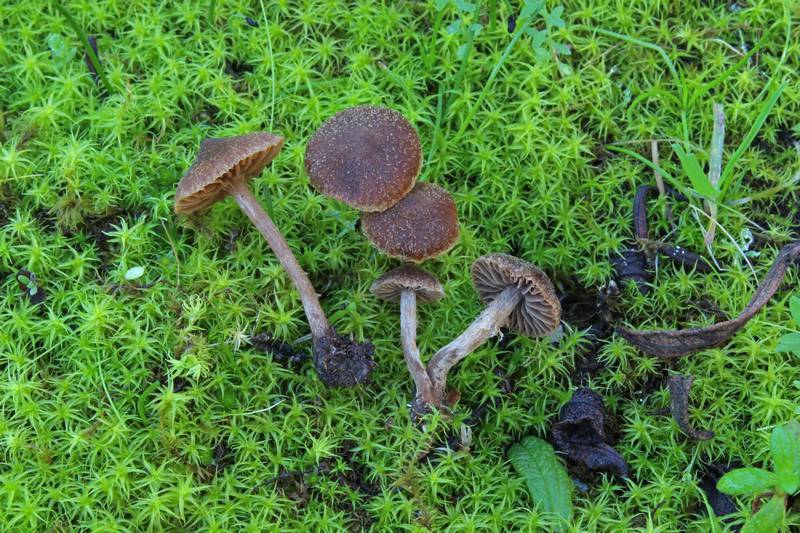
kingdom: Fungi
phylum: Basidiomycota
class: Agaricomycetes
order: Agaricales
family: Cortinariaceae
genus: Cortinarius
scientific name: Cortinarius cistohelvelloides
